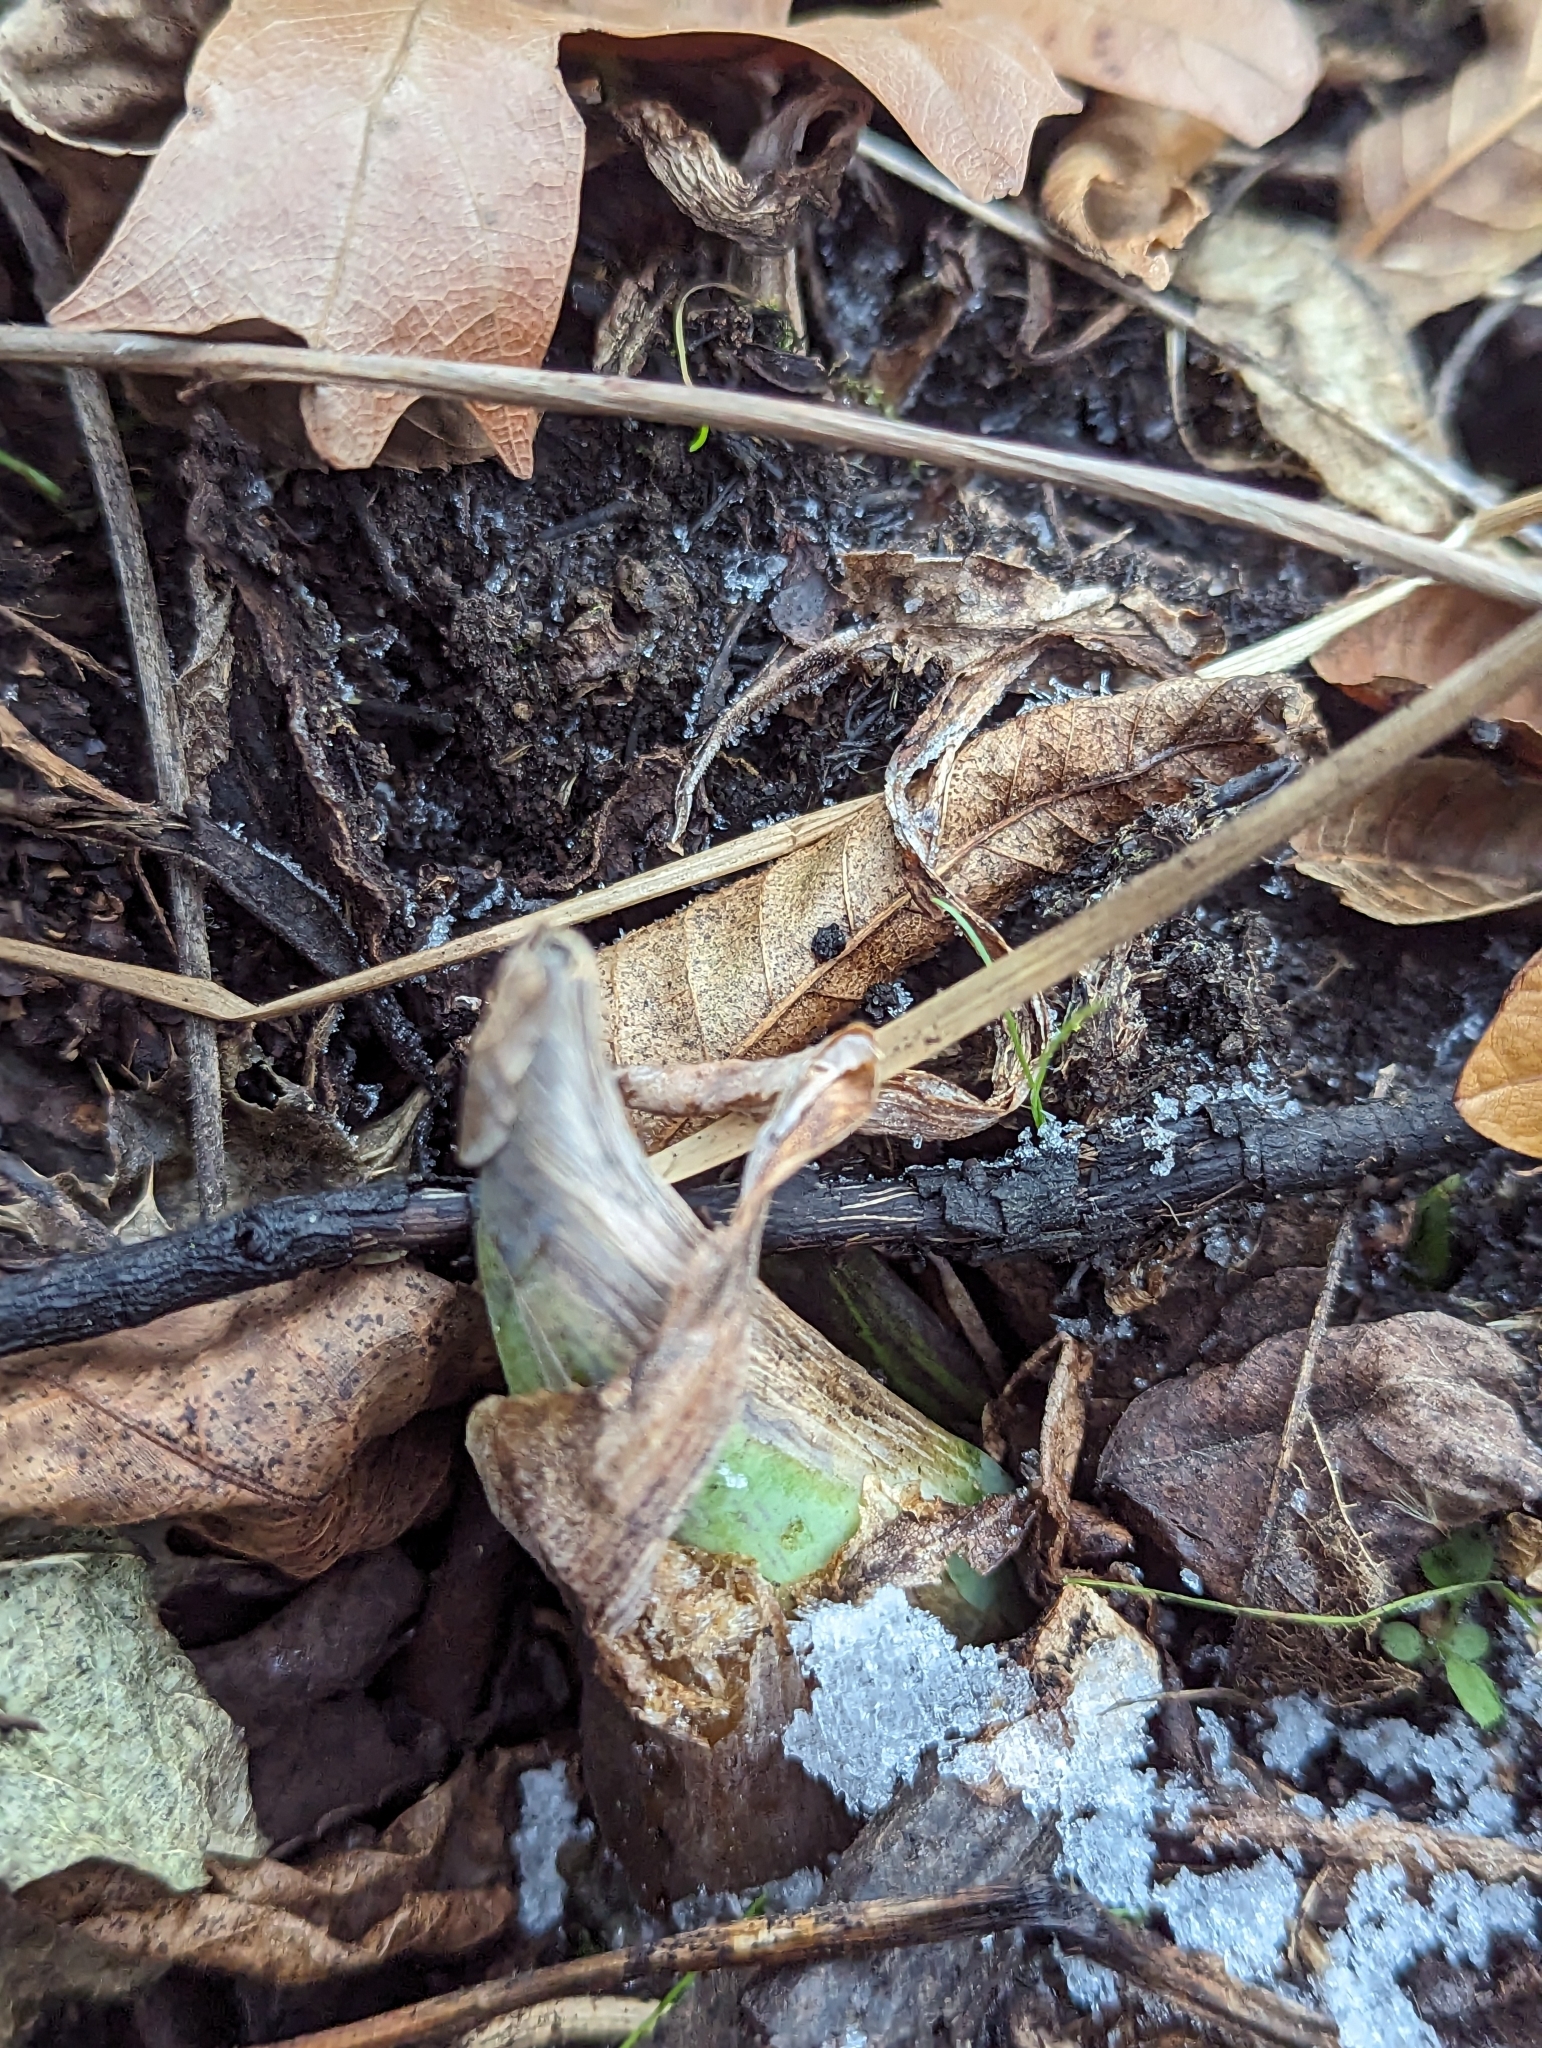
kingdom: Plantae
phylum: Tracheophyta
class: Liliopsida
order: Alismatales
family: Araceae
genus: Symplocarpus
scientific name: Symplocarpus foetidus
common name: Eastern skunk cabbage
